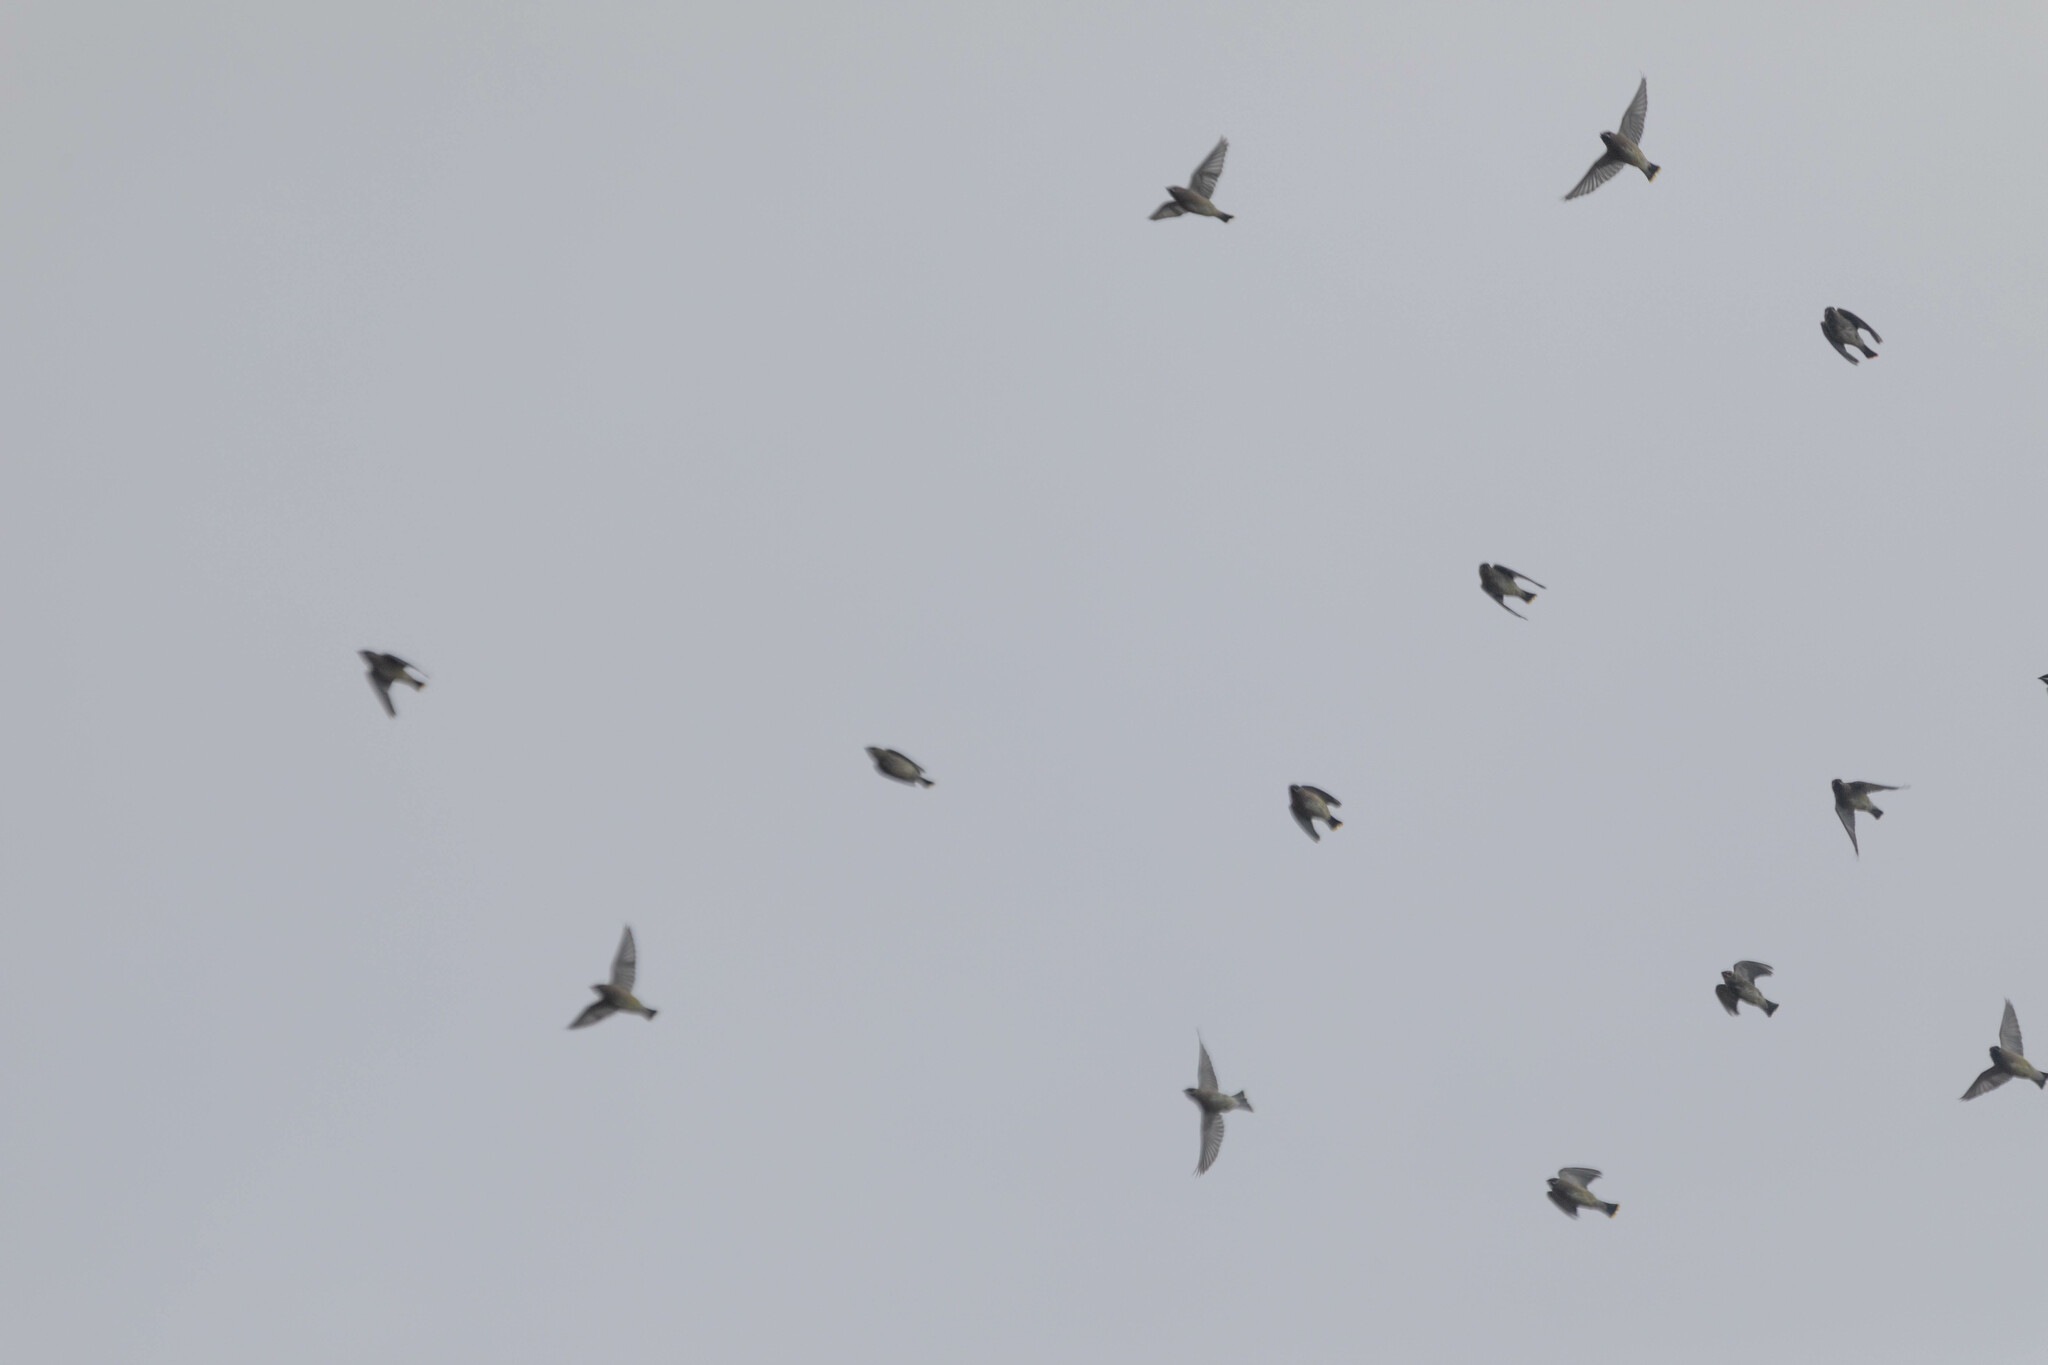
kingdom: Animalia
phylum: Chordata
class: Aves
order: Passeriformes
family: Bombycillidae
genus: Bombycilla
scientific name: Bombycilla cedrorum
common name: Cedar waxwing
